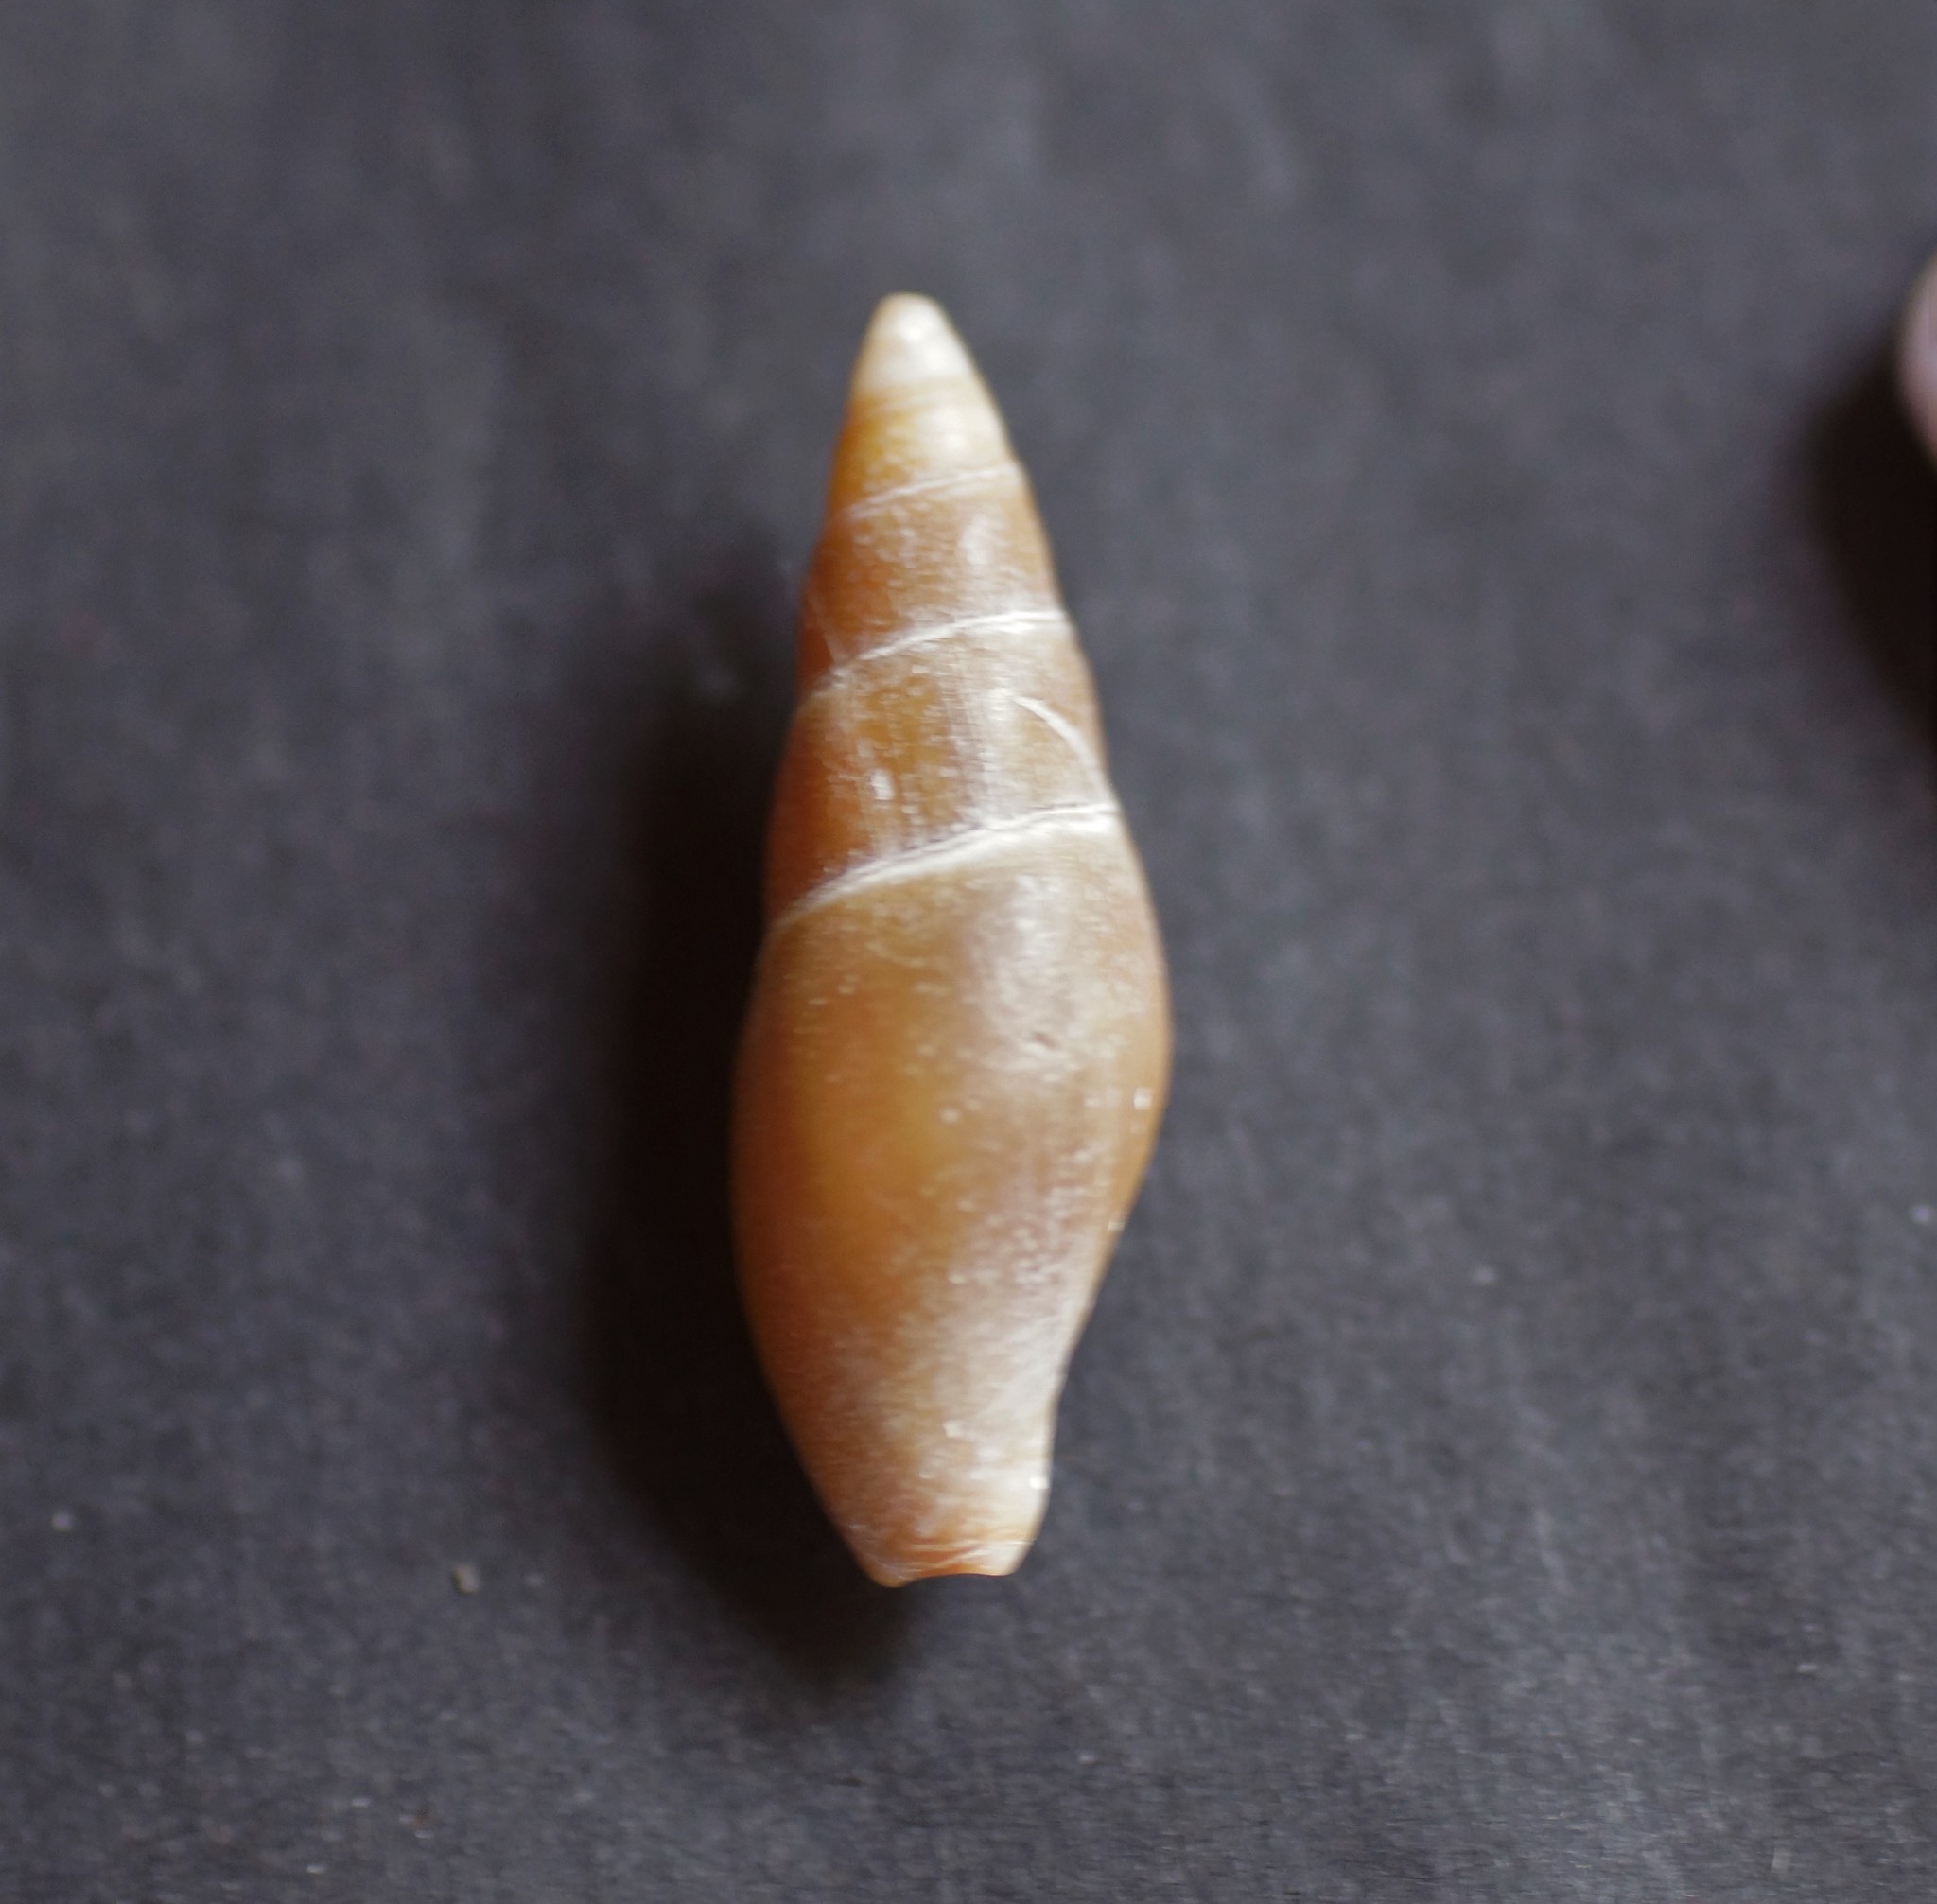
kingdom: Animalia
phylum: Mollusca
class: Gastropoda
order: Neogastropoda
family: Mitridae
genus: Isara
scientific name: Isara badia
